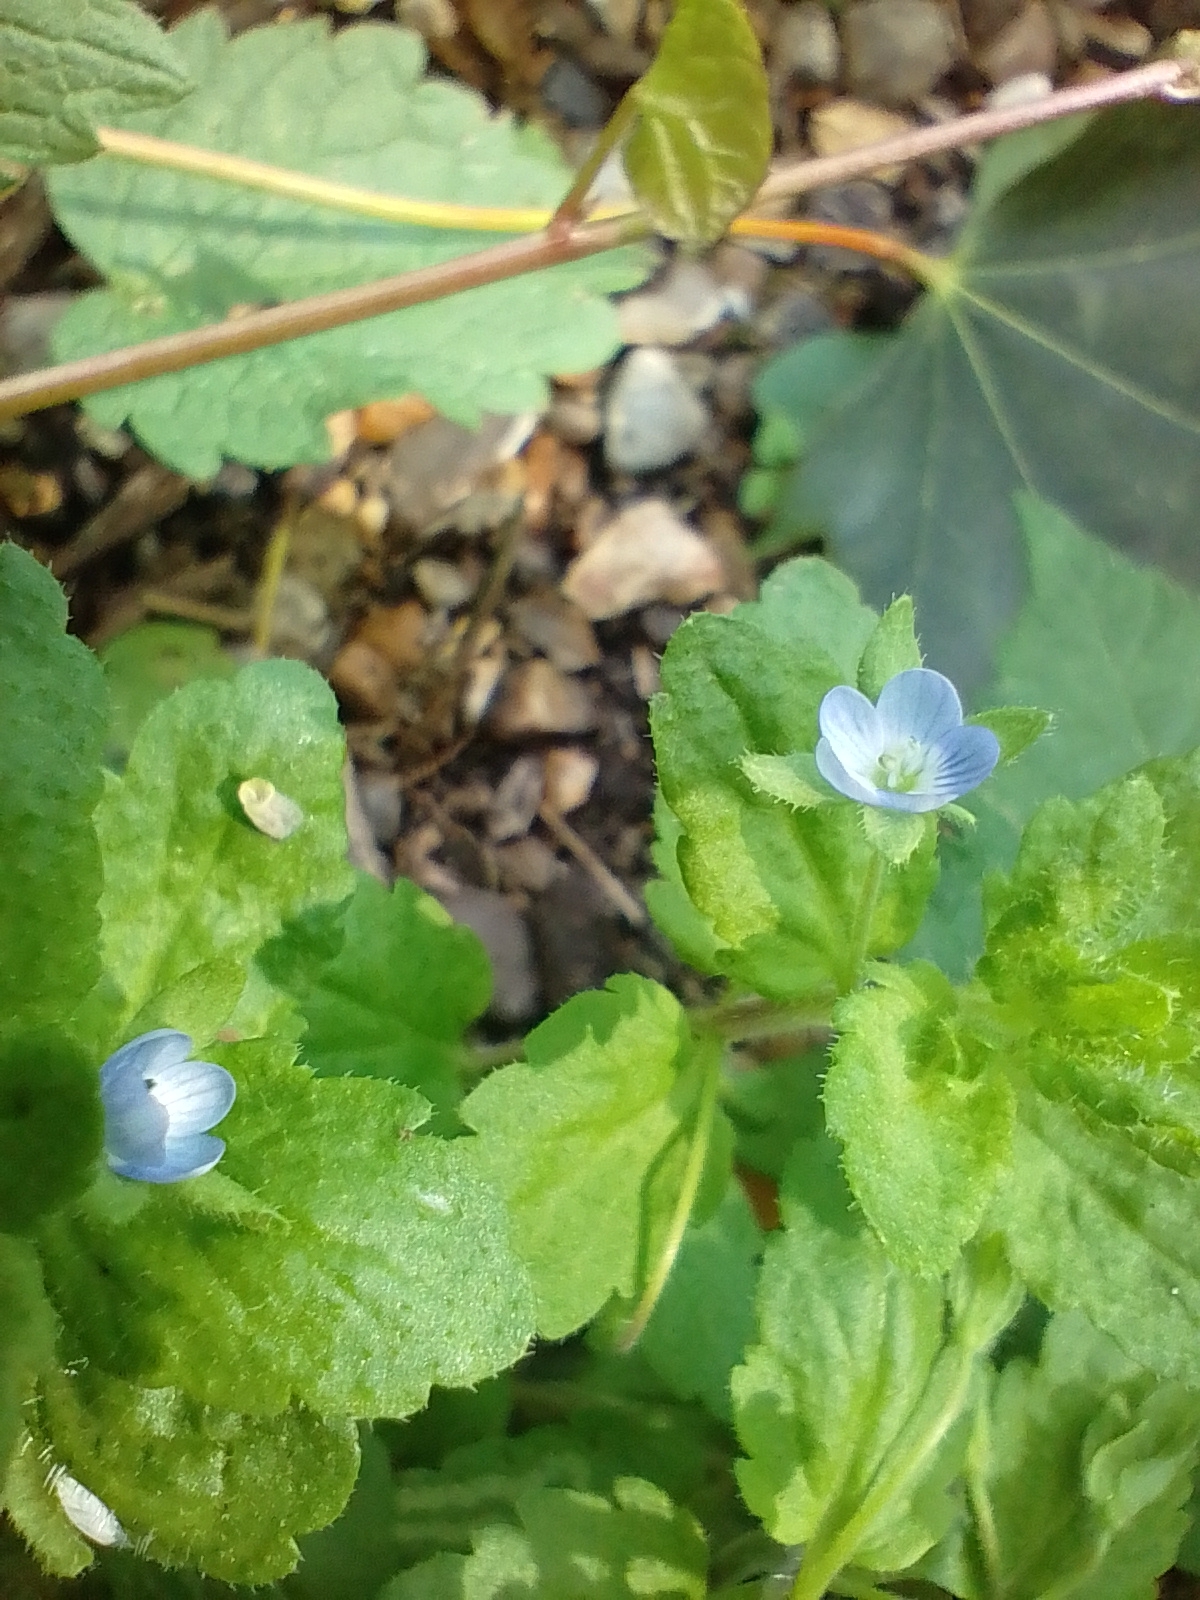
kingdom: Plantae
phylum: Tracheophyta
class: Magnoliopsida
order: Lamiales
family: Plantaginaceae
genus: Veronica
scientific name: Veronica agrestis
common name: Green field-speedwell
